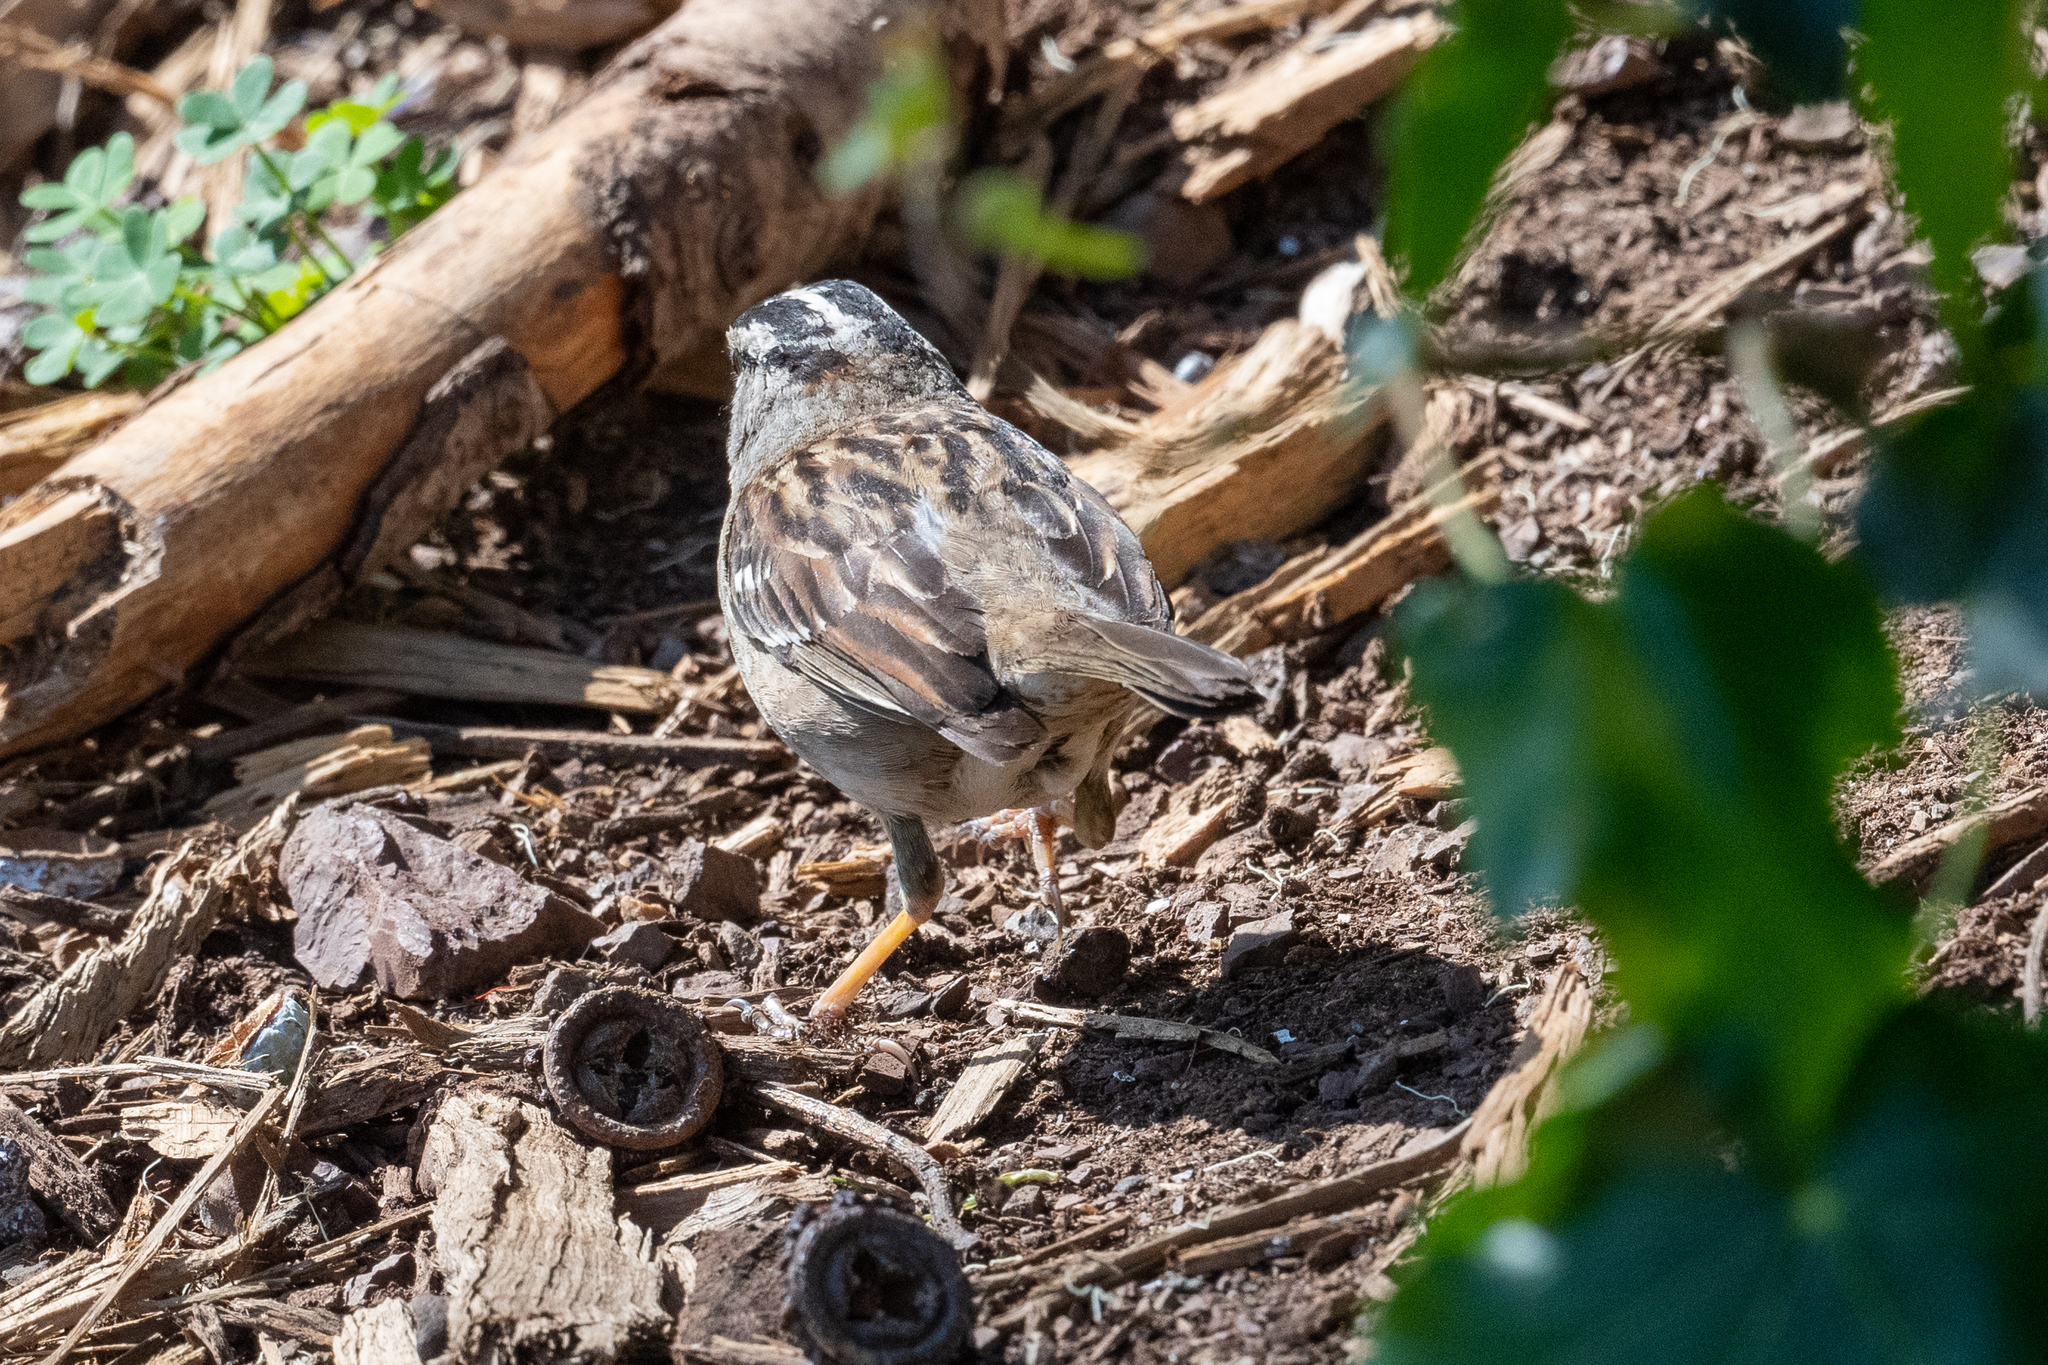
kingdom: Animalia
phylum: Chordata
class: Aves
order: Passeriformes
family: Passerellidae
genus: Zonotrichia
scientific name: Zonotrichia leucophrys
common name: White-crowned sparrow
